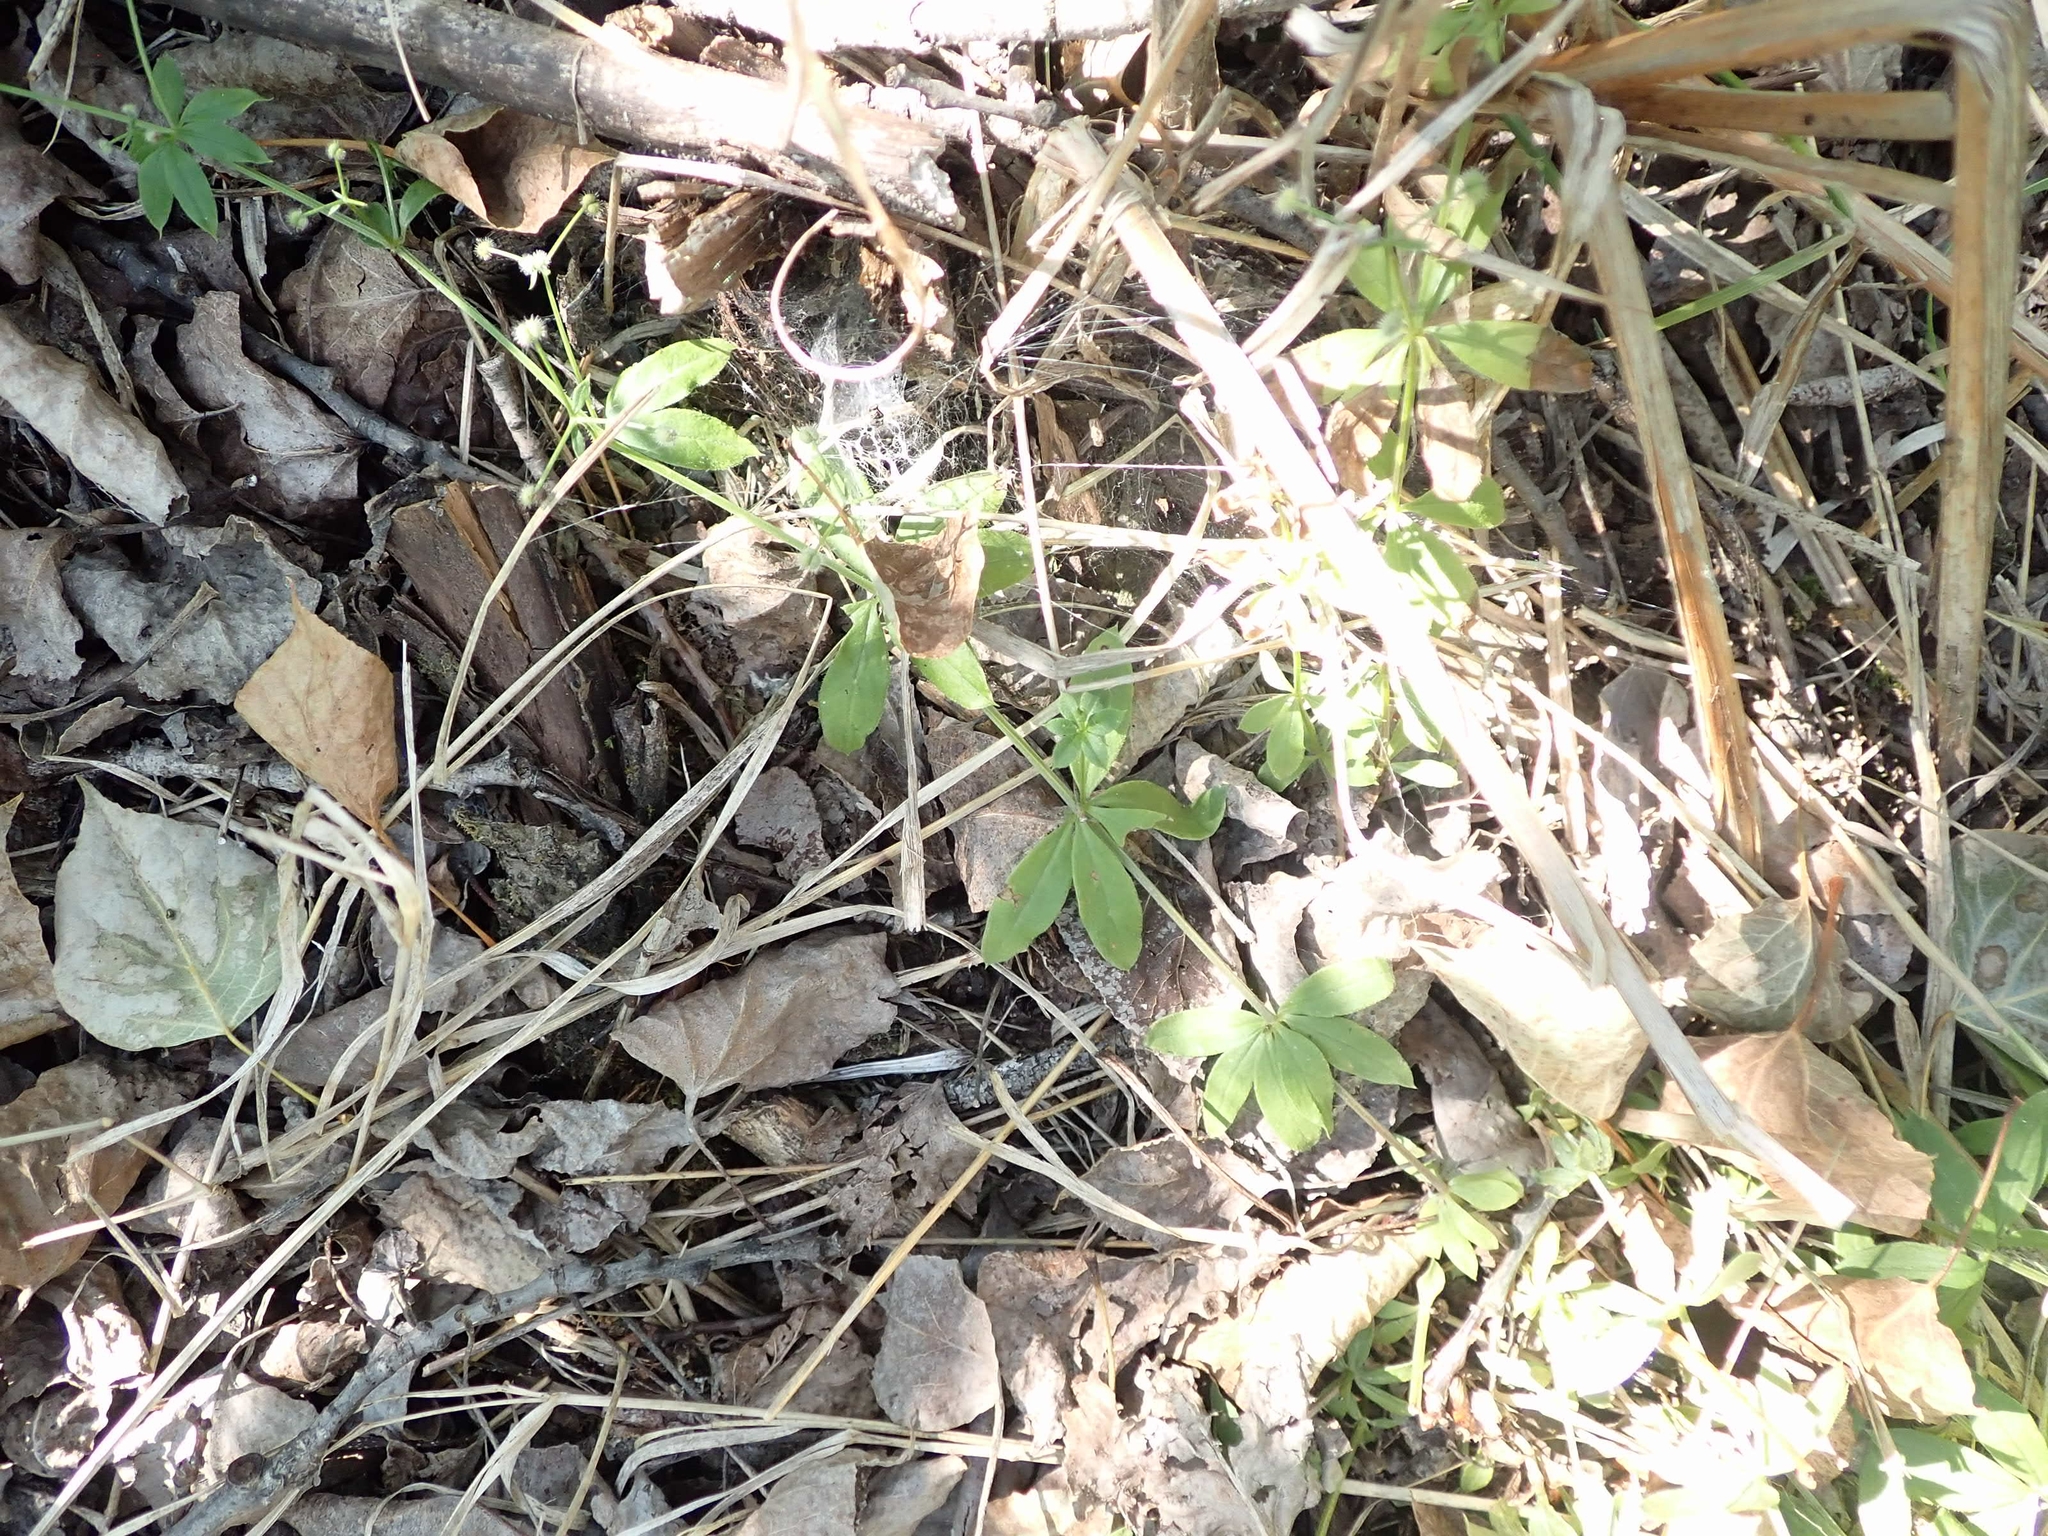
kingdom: Plantae
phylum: Tracheophyta
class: Magnoliopsida
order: Gentianales
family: Rubiaceae
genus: Galium
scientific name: Galium triflorum
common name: Fragrant bedstraw
